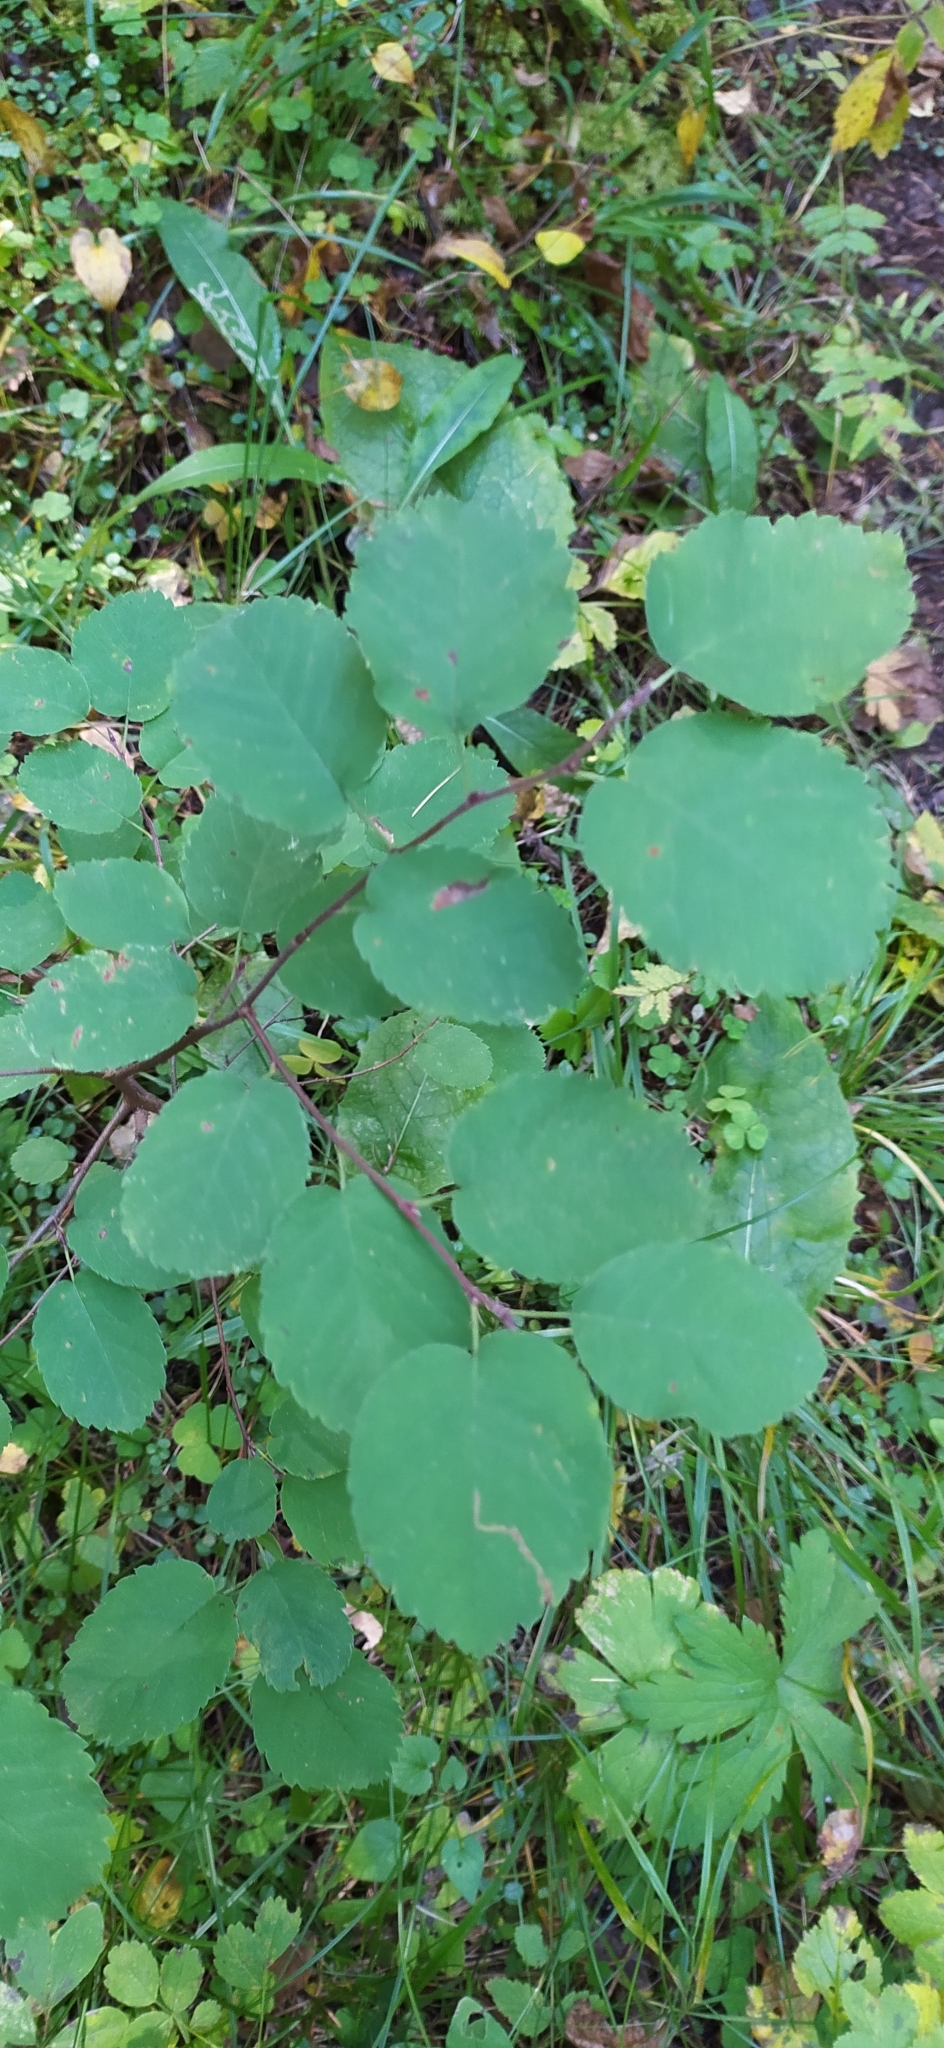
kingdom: Plantae
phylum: Tracheophyta
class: Magnoliopsida
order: Rosales
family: Rosaceae
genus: Amelanchier
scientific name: Amelanchier alnifolia
